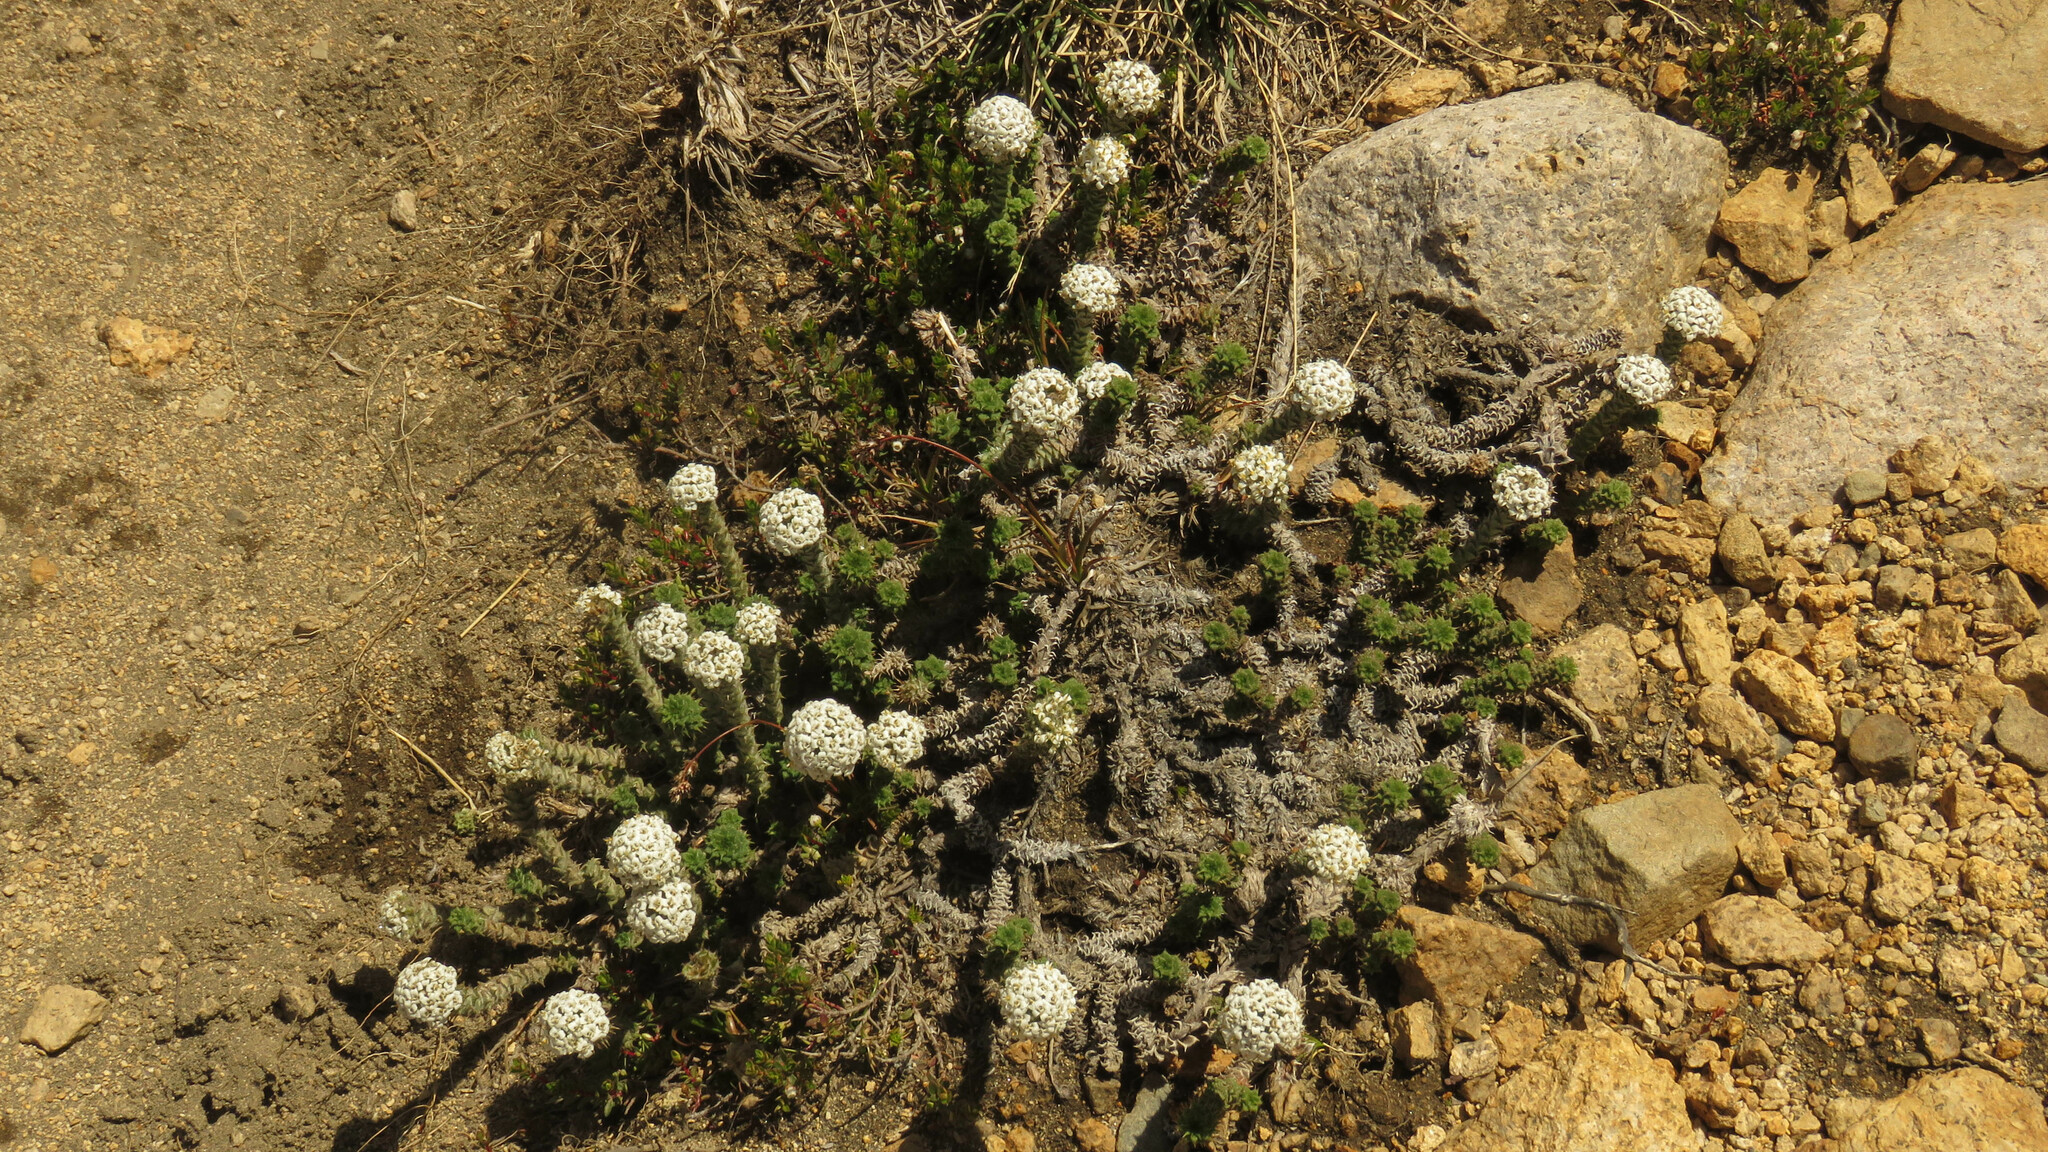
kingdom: Plantae
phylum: Tracheophyta
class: Magnoliopsida
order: Asterales
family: Asteraceae
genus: Nassauvia
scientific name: Nassauvia revoluta
